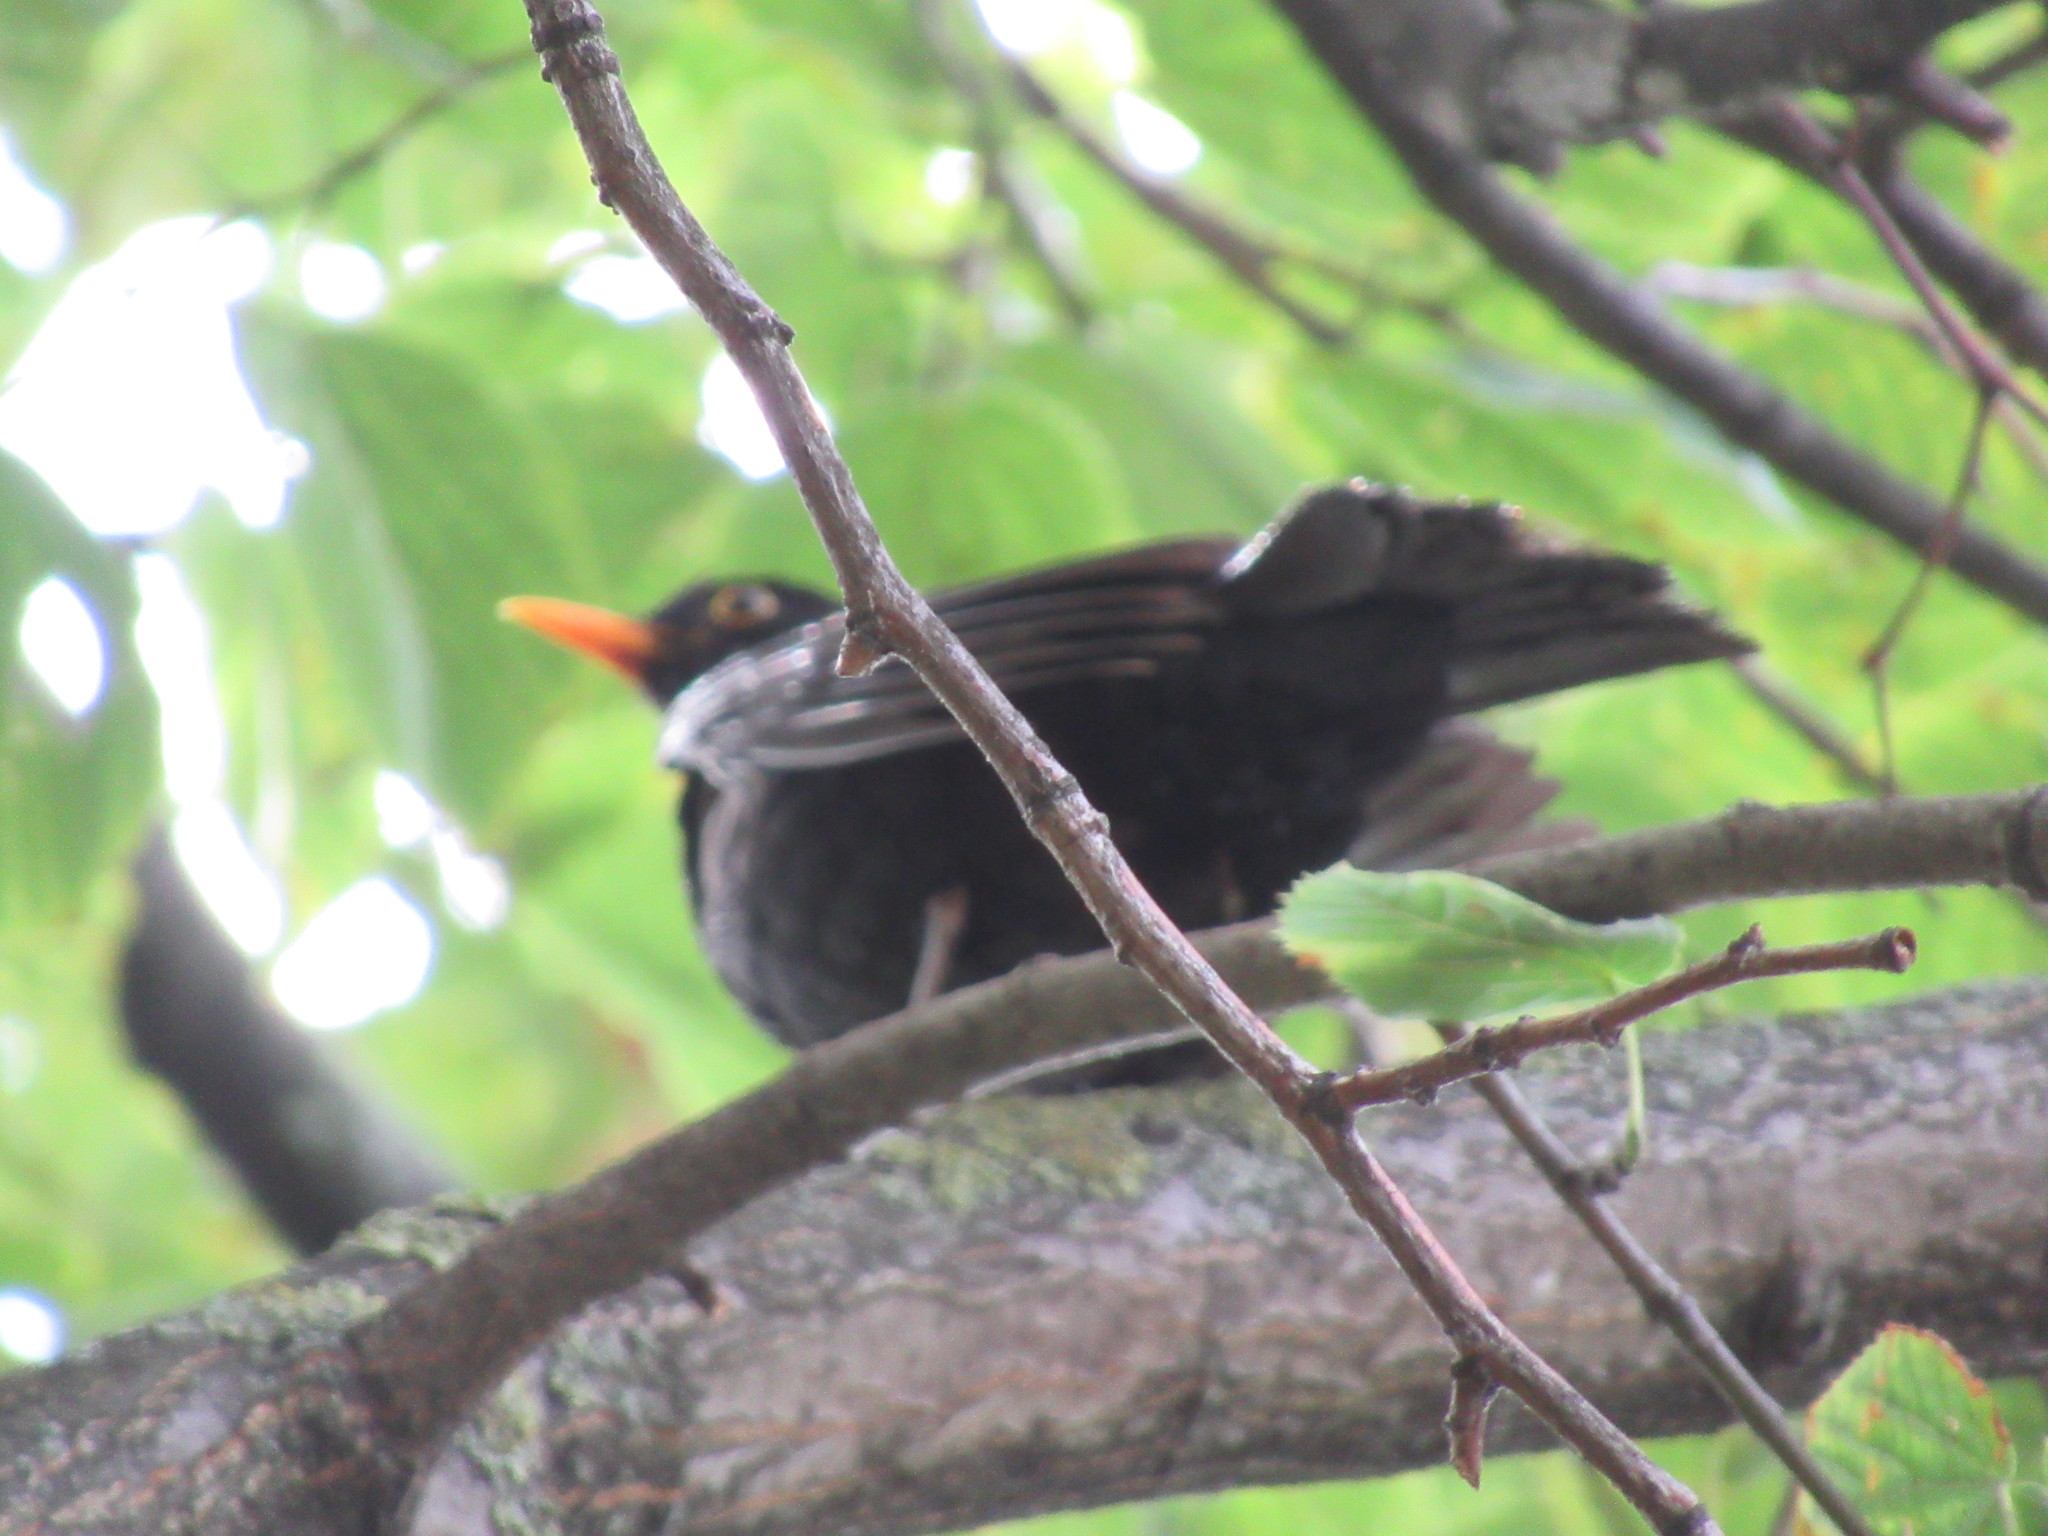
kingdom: Animalia
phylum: Chordata
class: Aves
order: Passeriformes
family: Turdidae
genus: Turdus
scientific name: Turdus merula
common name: Common blackbird
